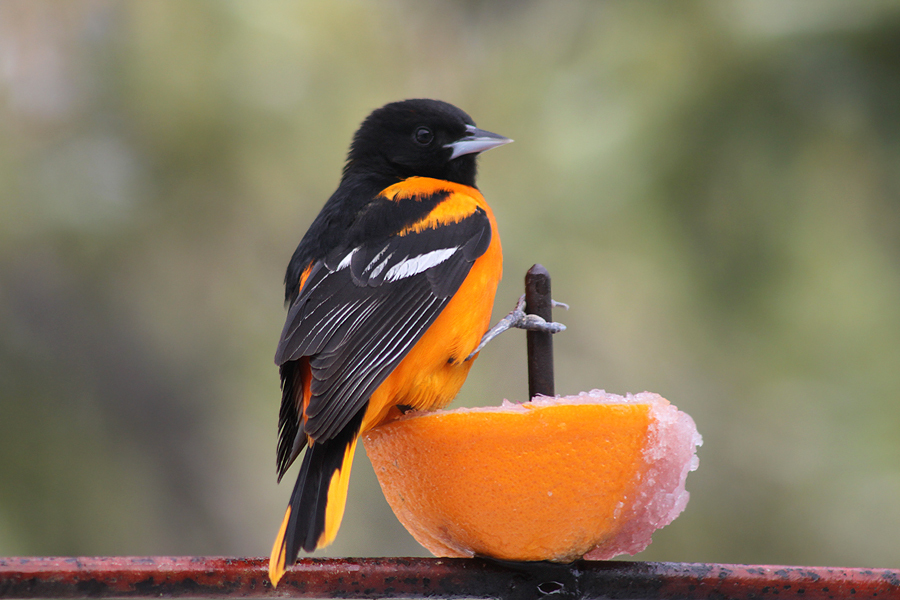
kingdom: Animalia
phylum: Chordata
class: Aves
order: Passeriformes
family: Icteridae
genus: Icterus
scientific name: Icterus galbula
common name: Baltimore oriole
